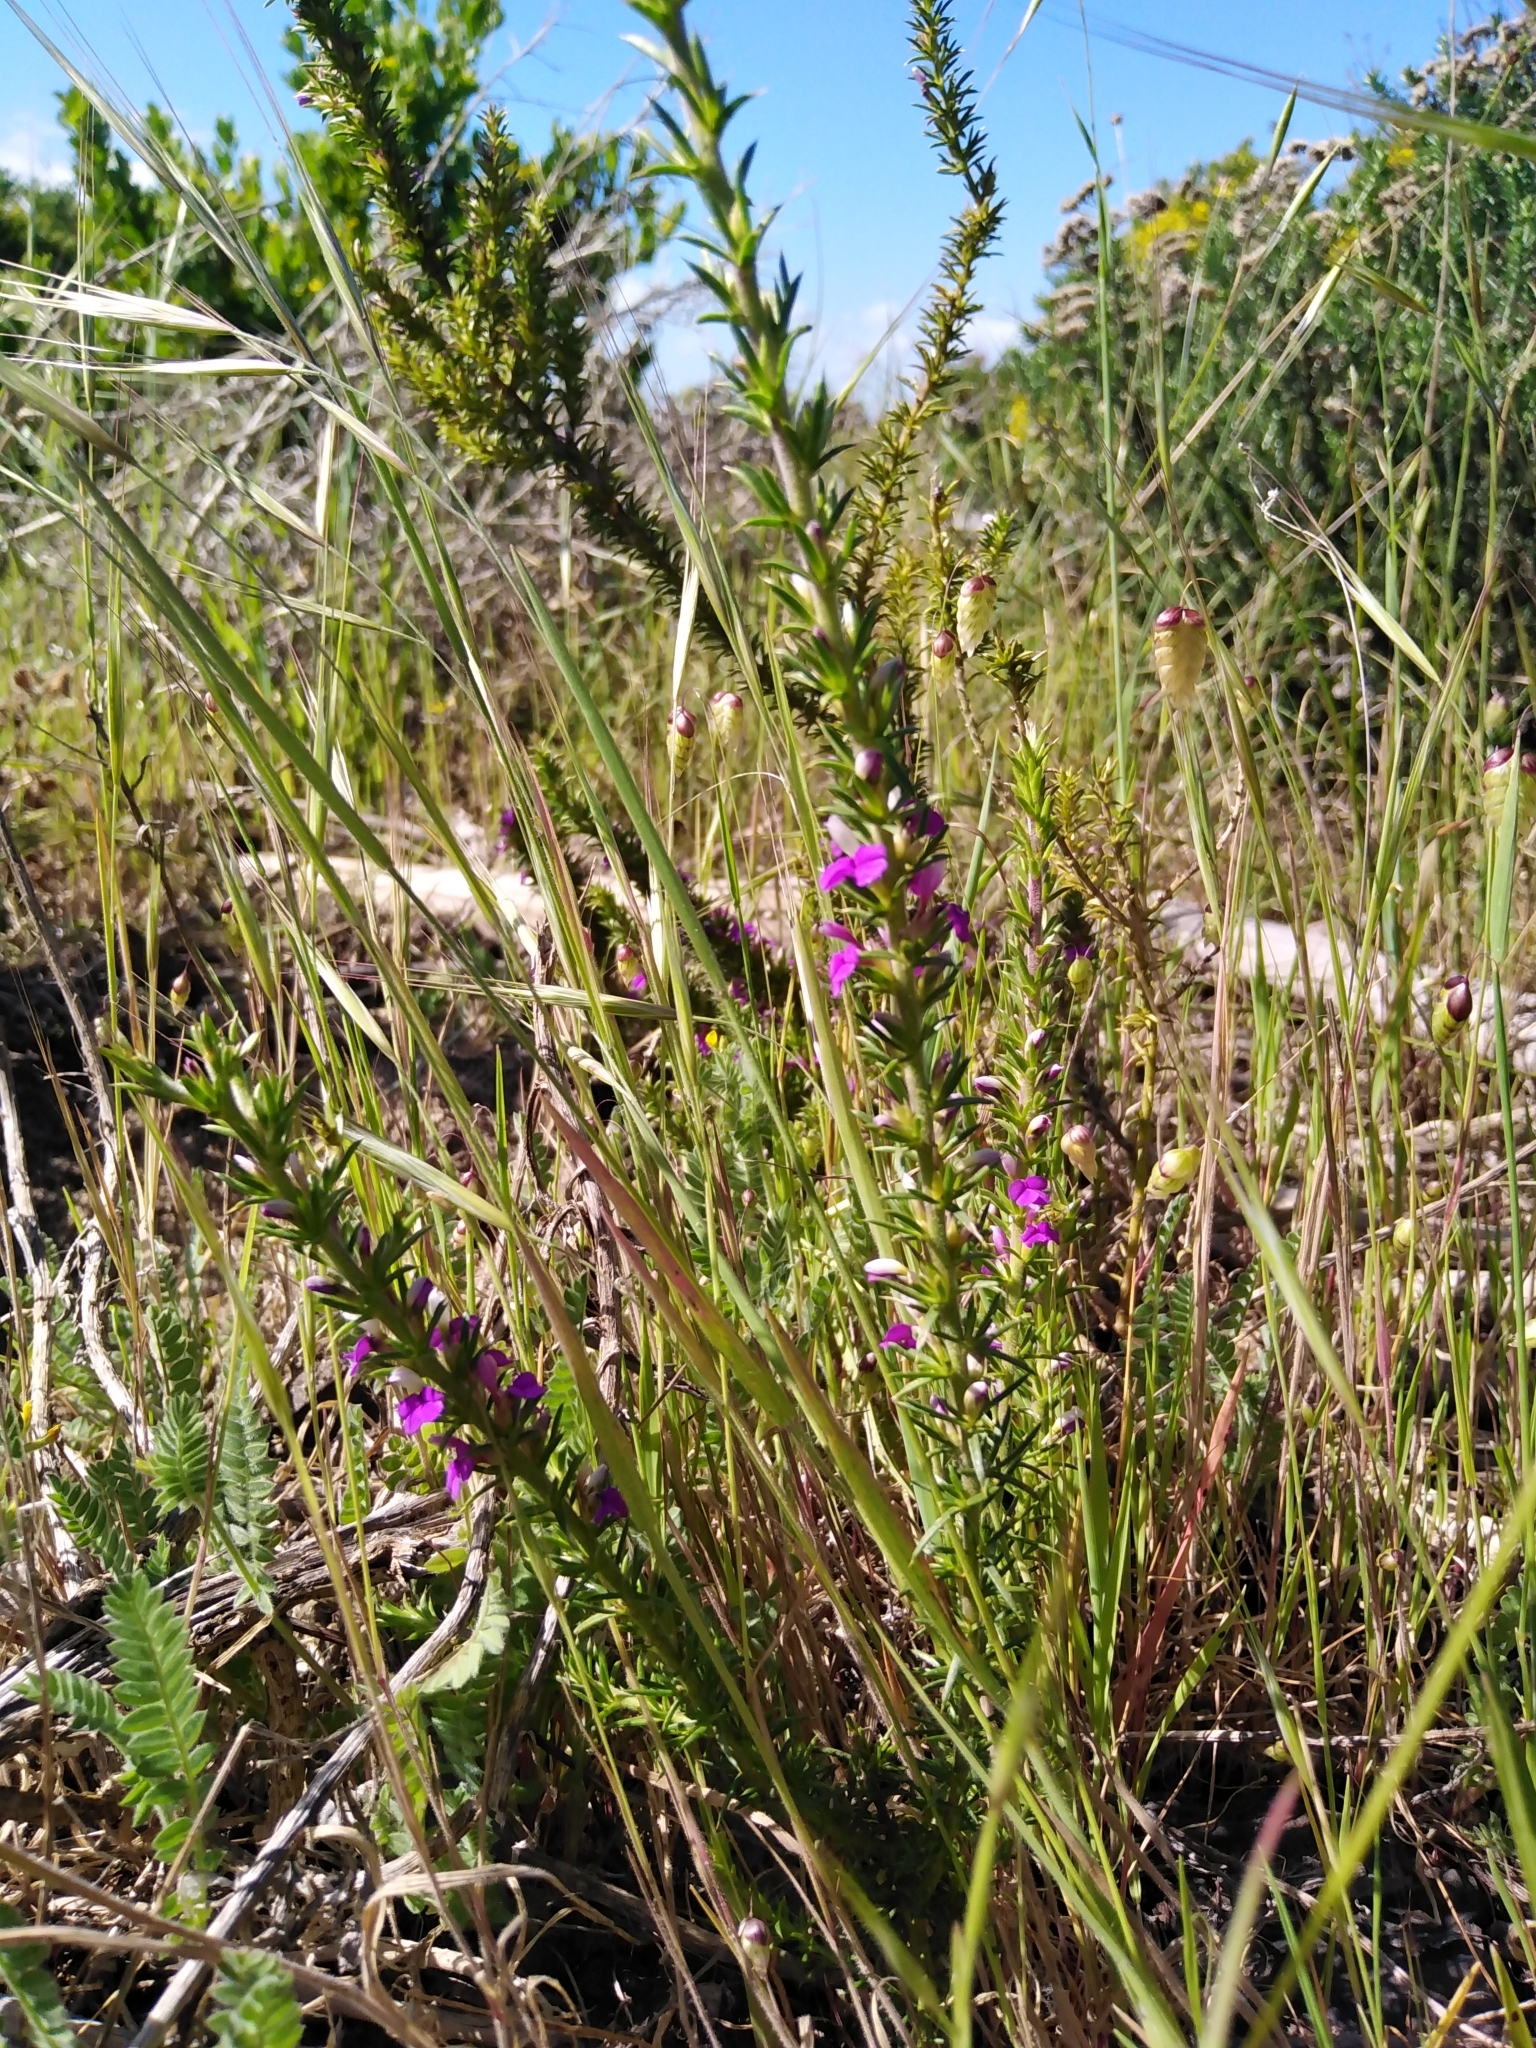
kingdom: Plantae
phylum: Tracheophyta
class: Magnoliopsida
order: Fabales
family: Polygalaceae
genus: Muraltia
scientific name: Muraltia heisteria
